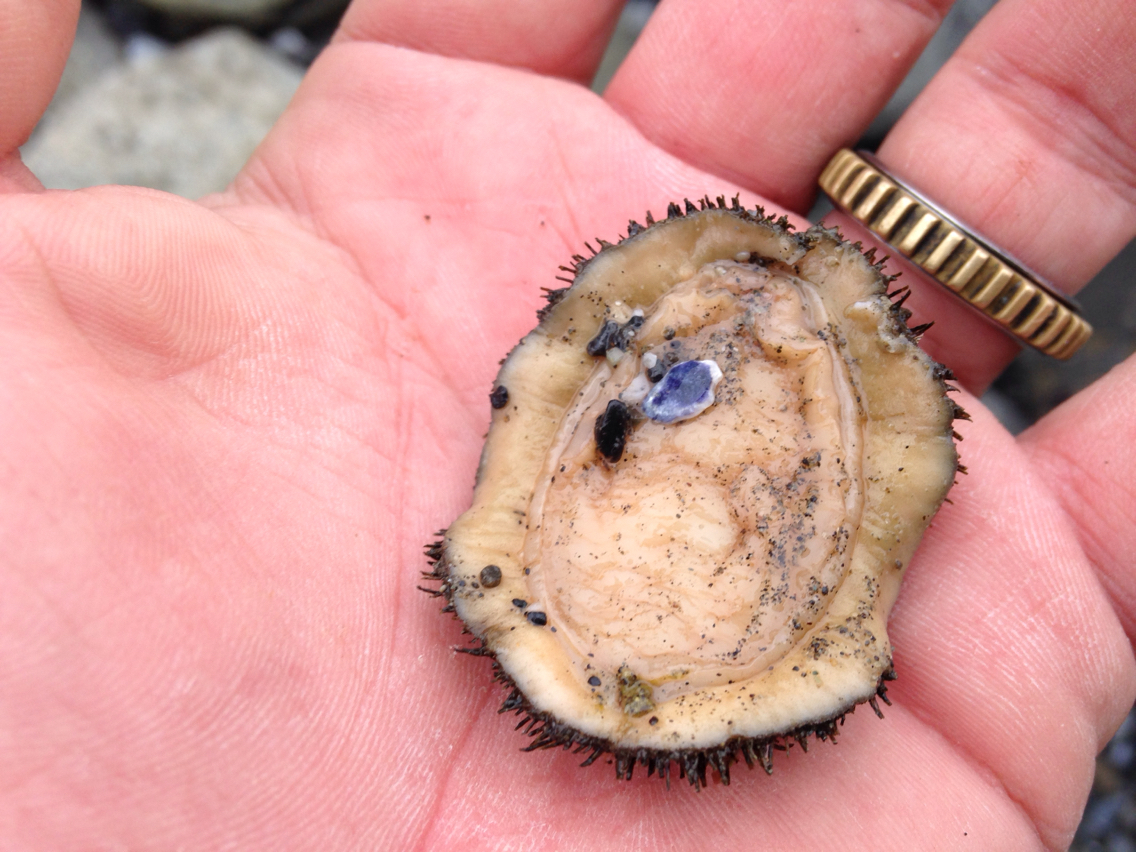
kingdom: Animalia
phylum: Mollusca
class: Polyplacophora
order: Chitonida
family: Mopaliidae
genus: Mopalia
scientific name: Mopalia muscosa
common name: Mossy chiton
